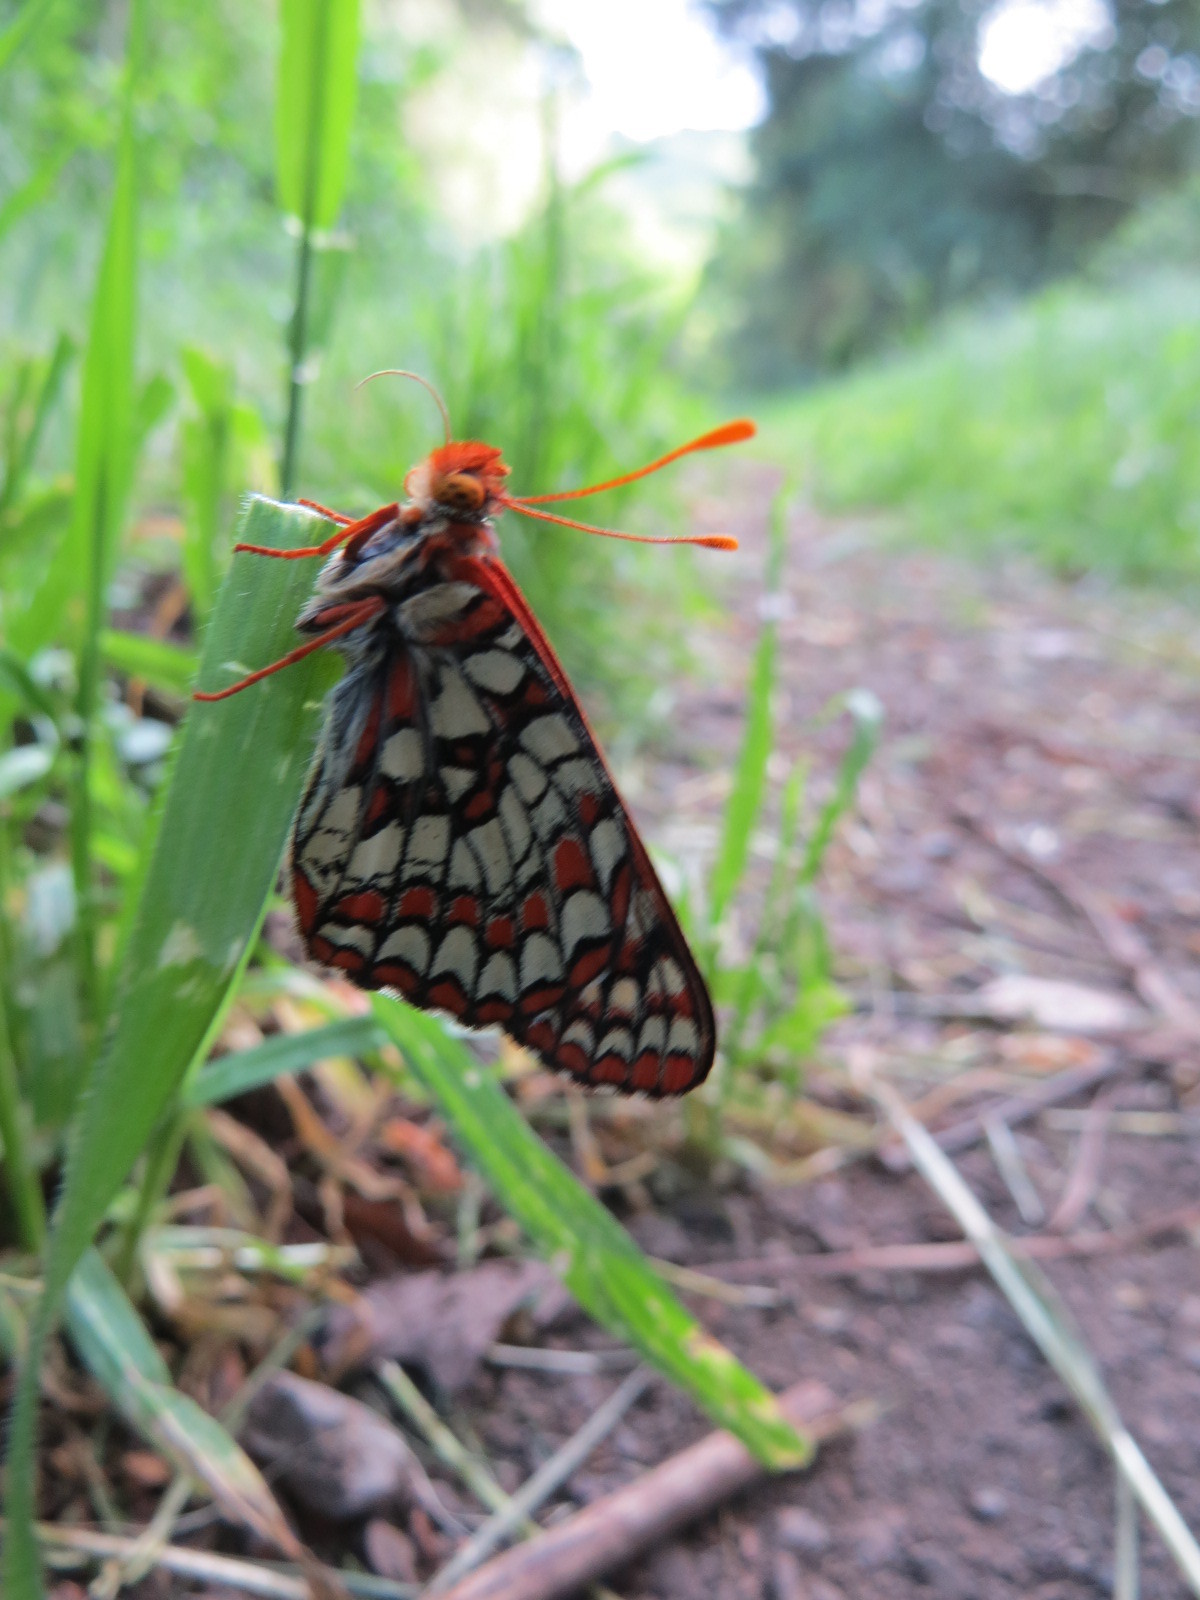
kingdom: Animalia
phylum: Arthropoda
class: Insecta
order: Lepidoptera
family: Nymphalidae
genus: Occidryas
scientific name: Occidryas chalcedona
